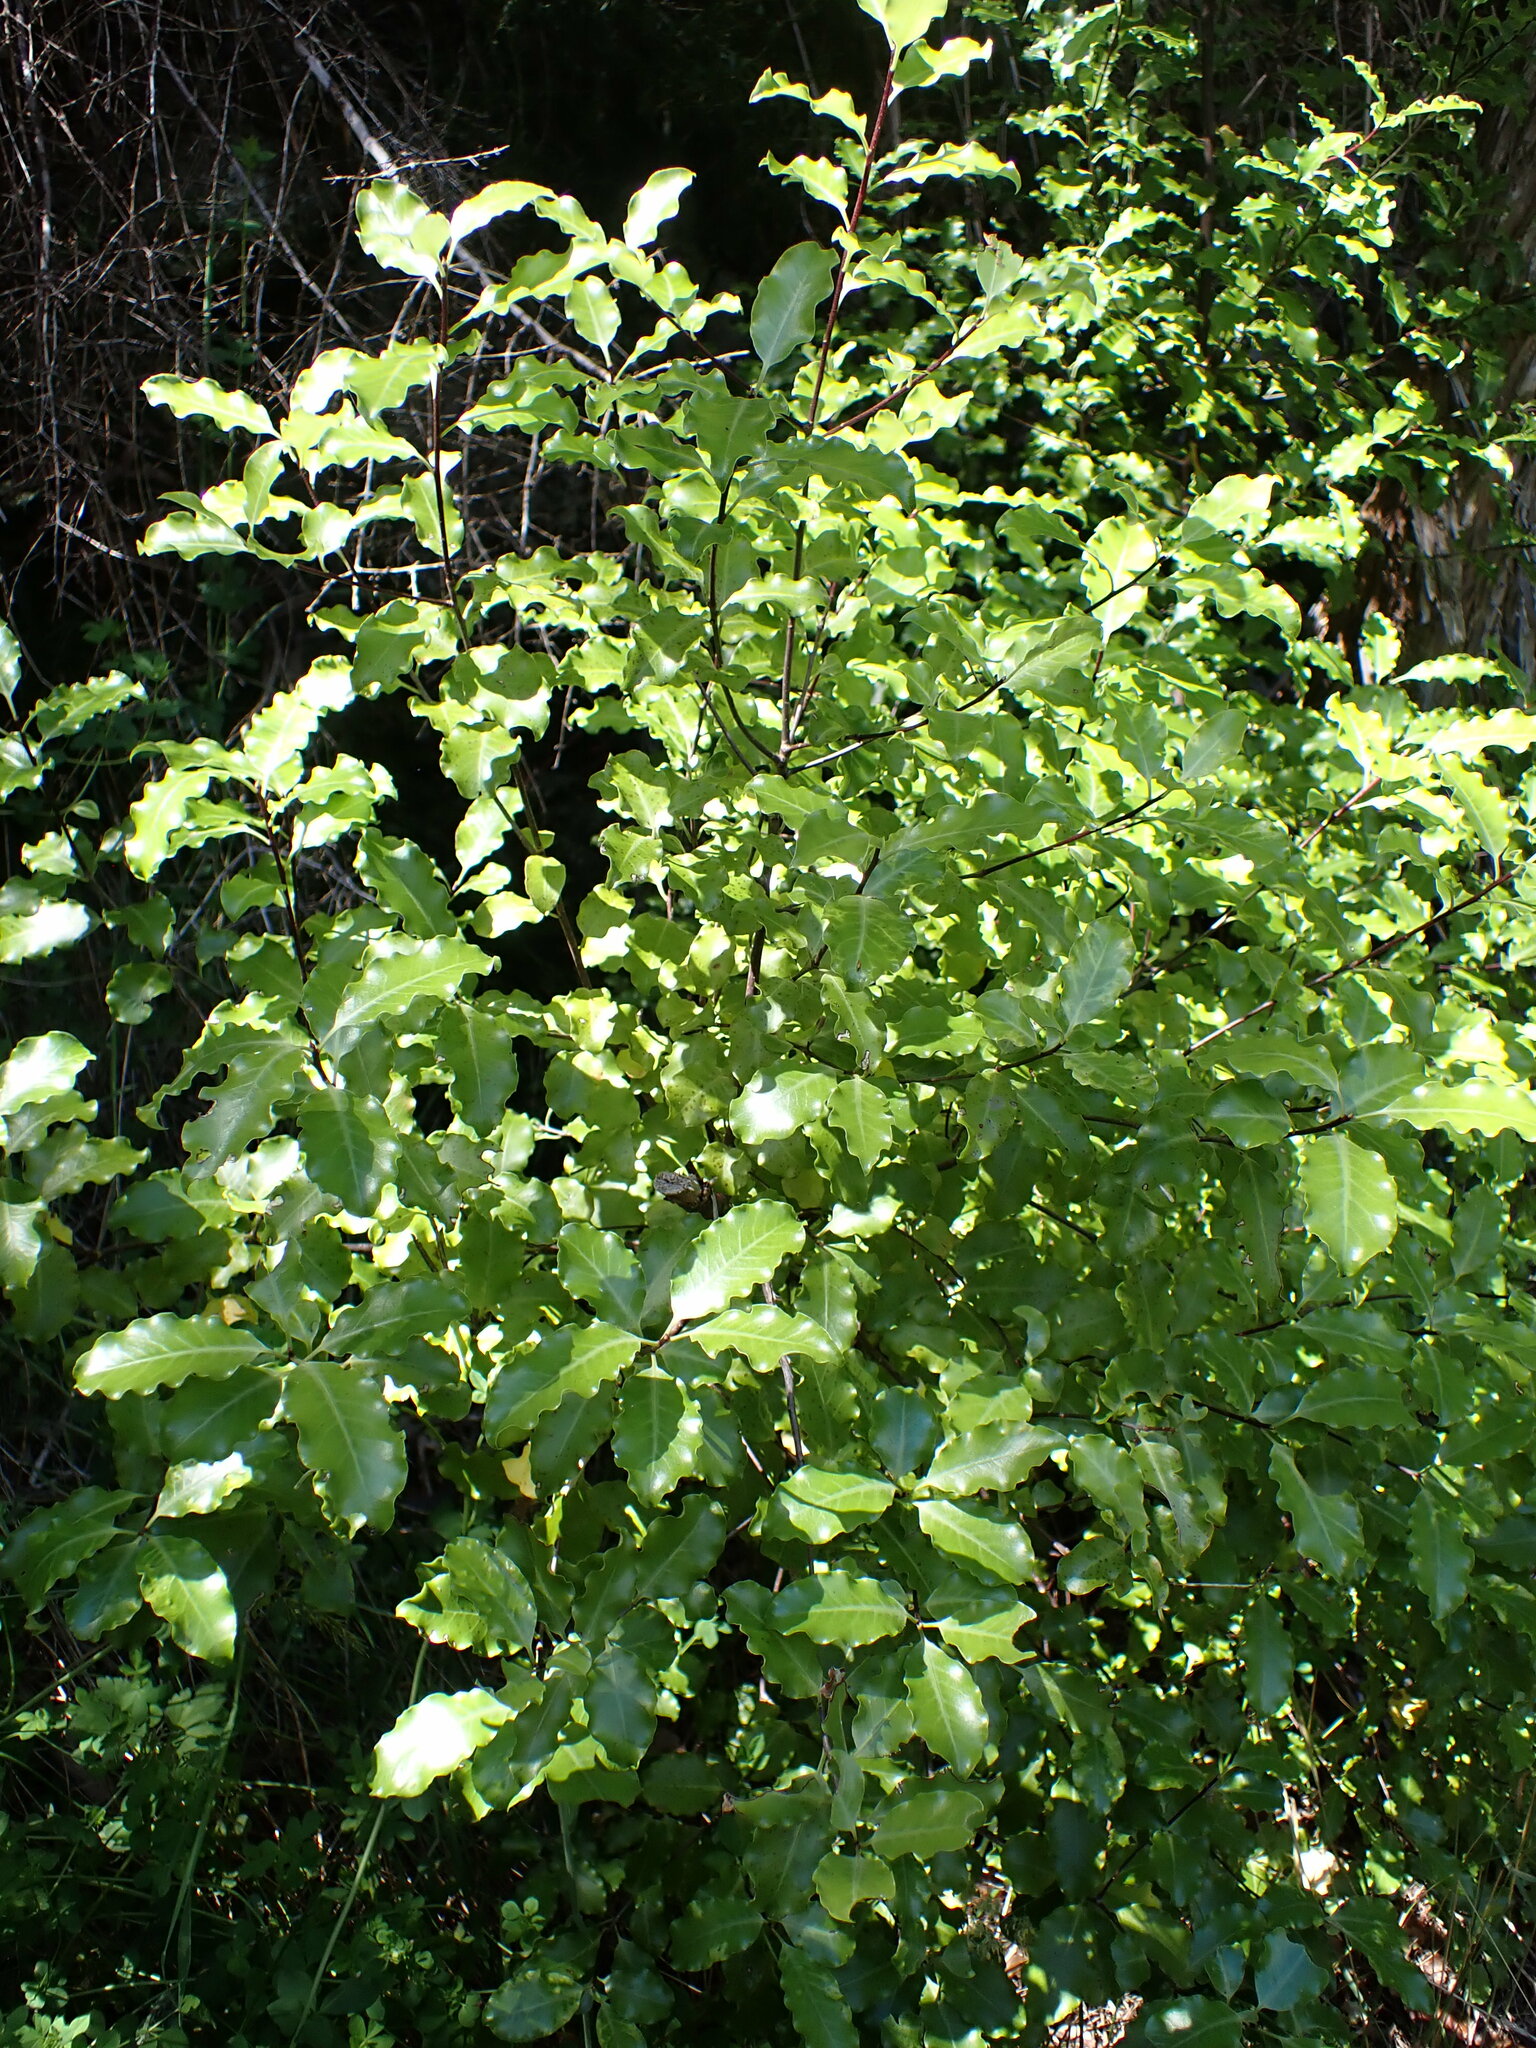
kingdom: Plantae
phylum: Tracheophyta
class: Magnoliopsida
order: Apiales
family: Pittosporaceae
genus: Pittosporum
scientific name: Pittosporum tenuifolium
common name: Kohuhu
